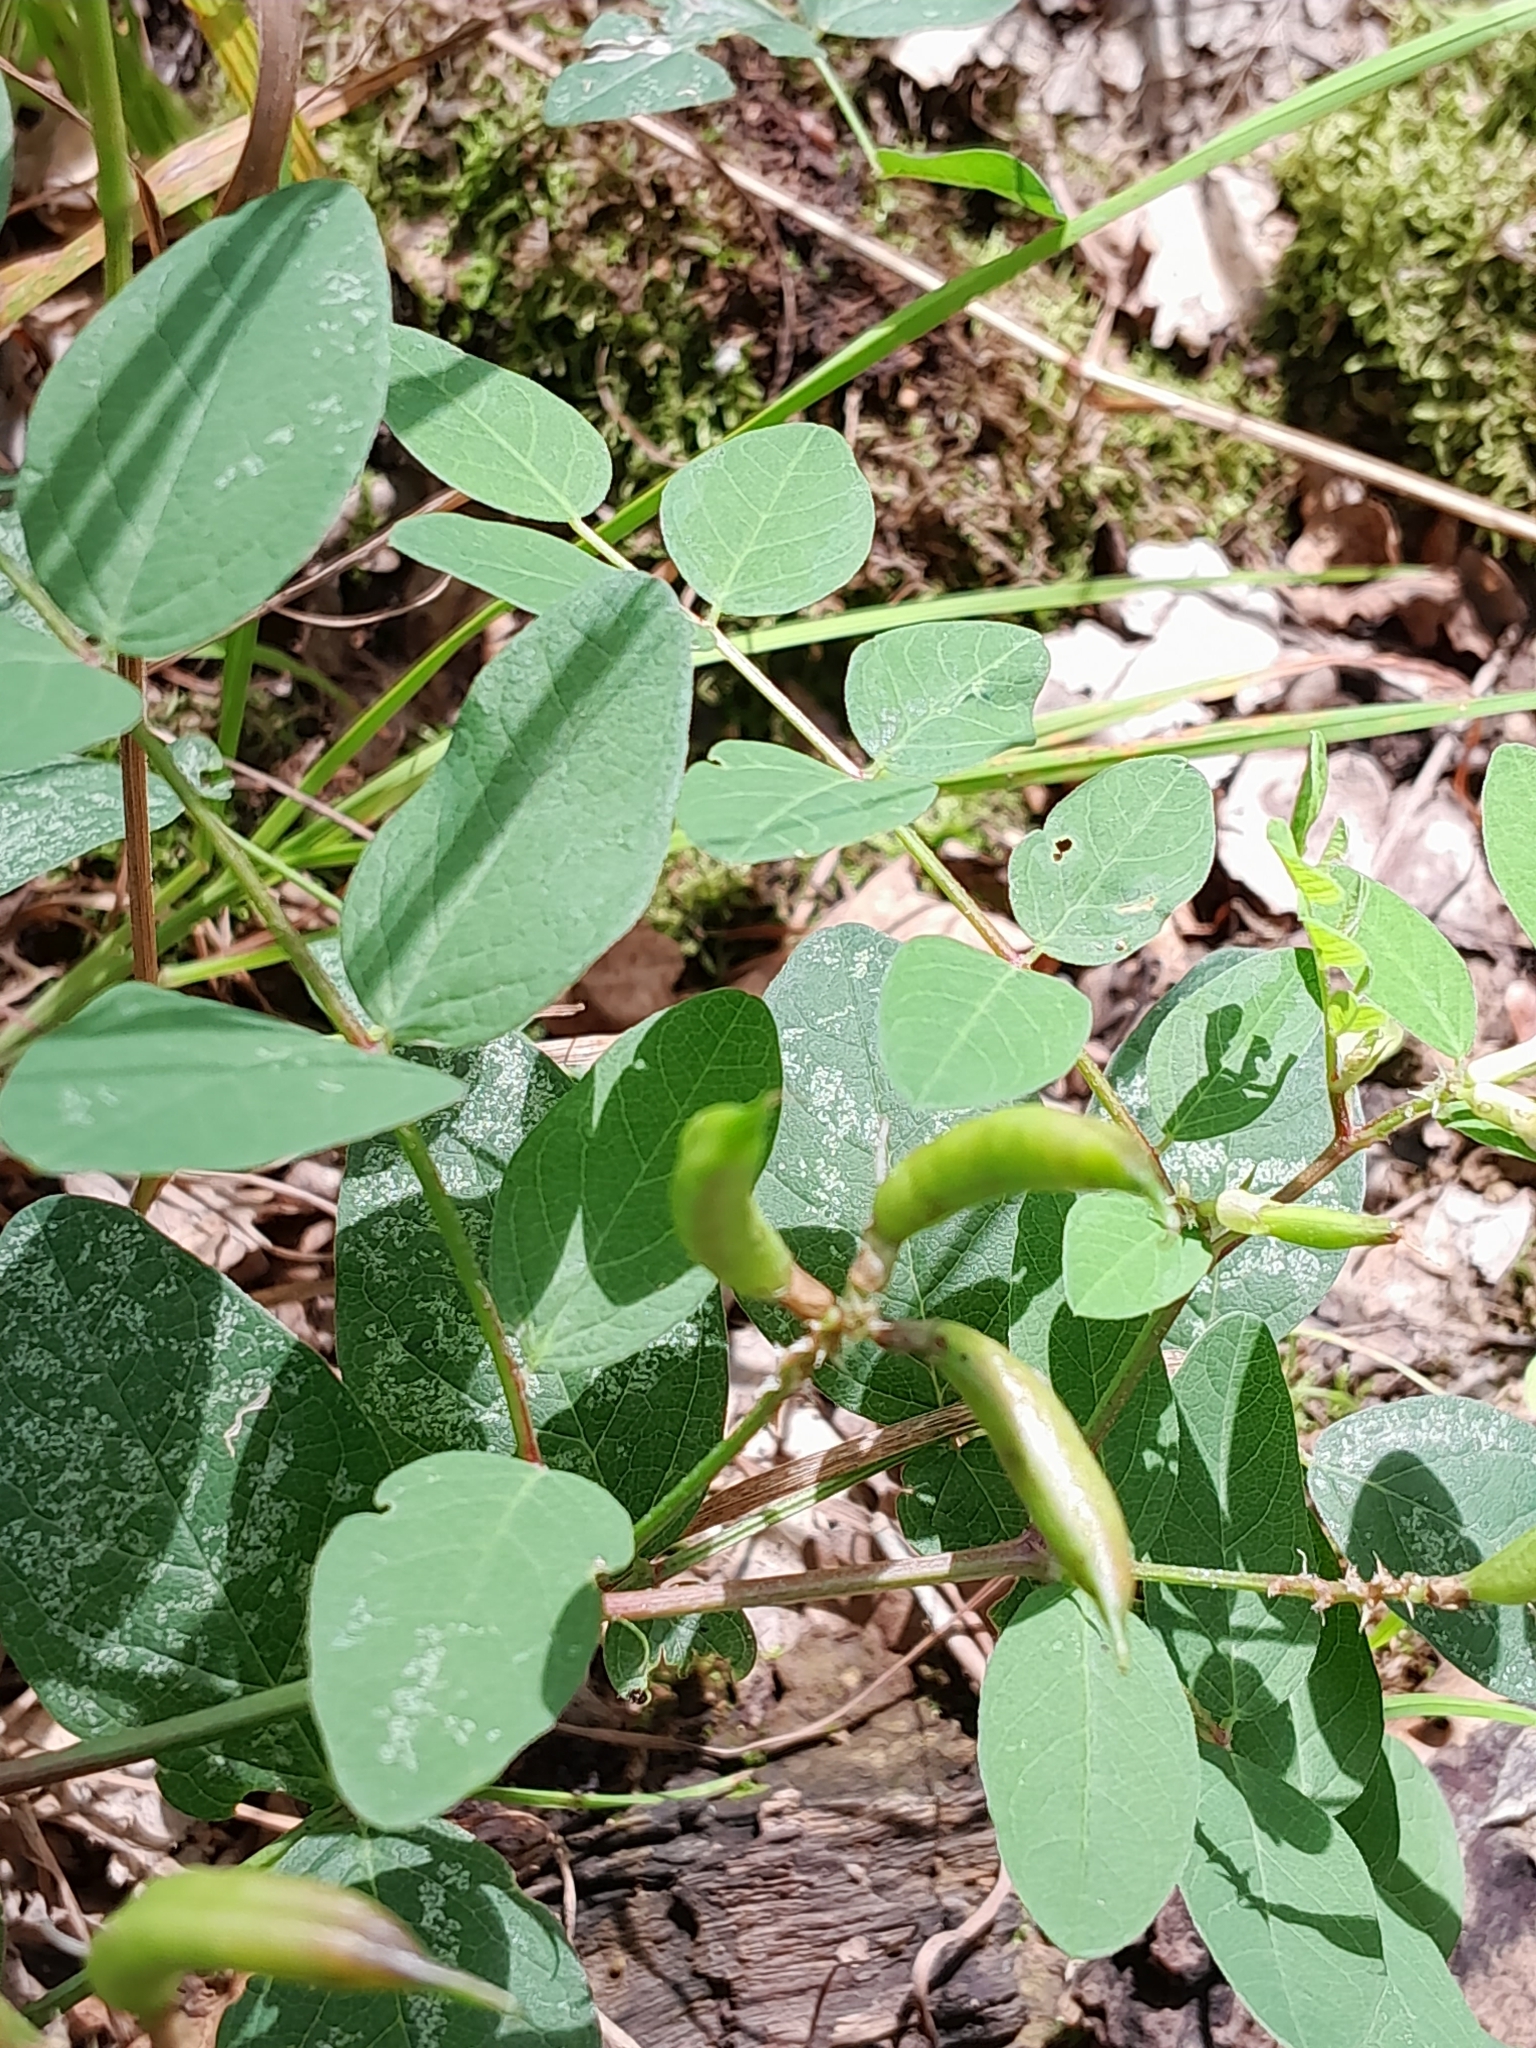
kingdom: Plantae
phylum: Tracheophyta
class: Magnoliopsida
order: Fabales
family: Fabaceae
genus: Astragalus
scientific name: Astragalus glycyphyllos
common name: Wild liquorice
